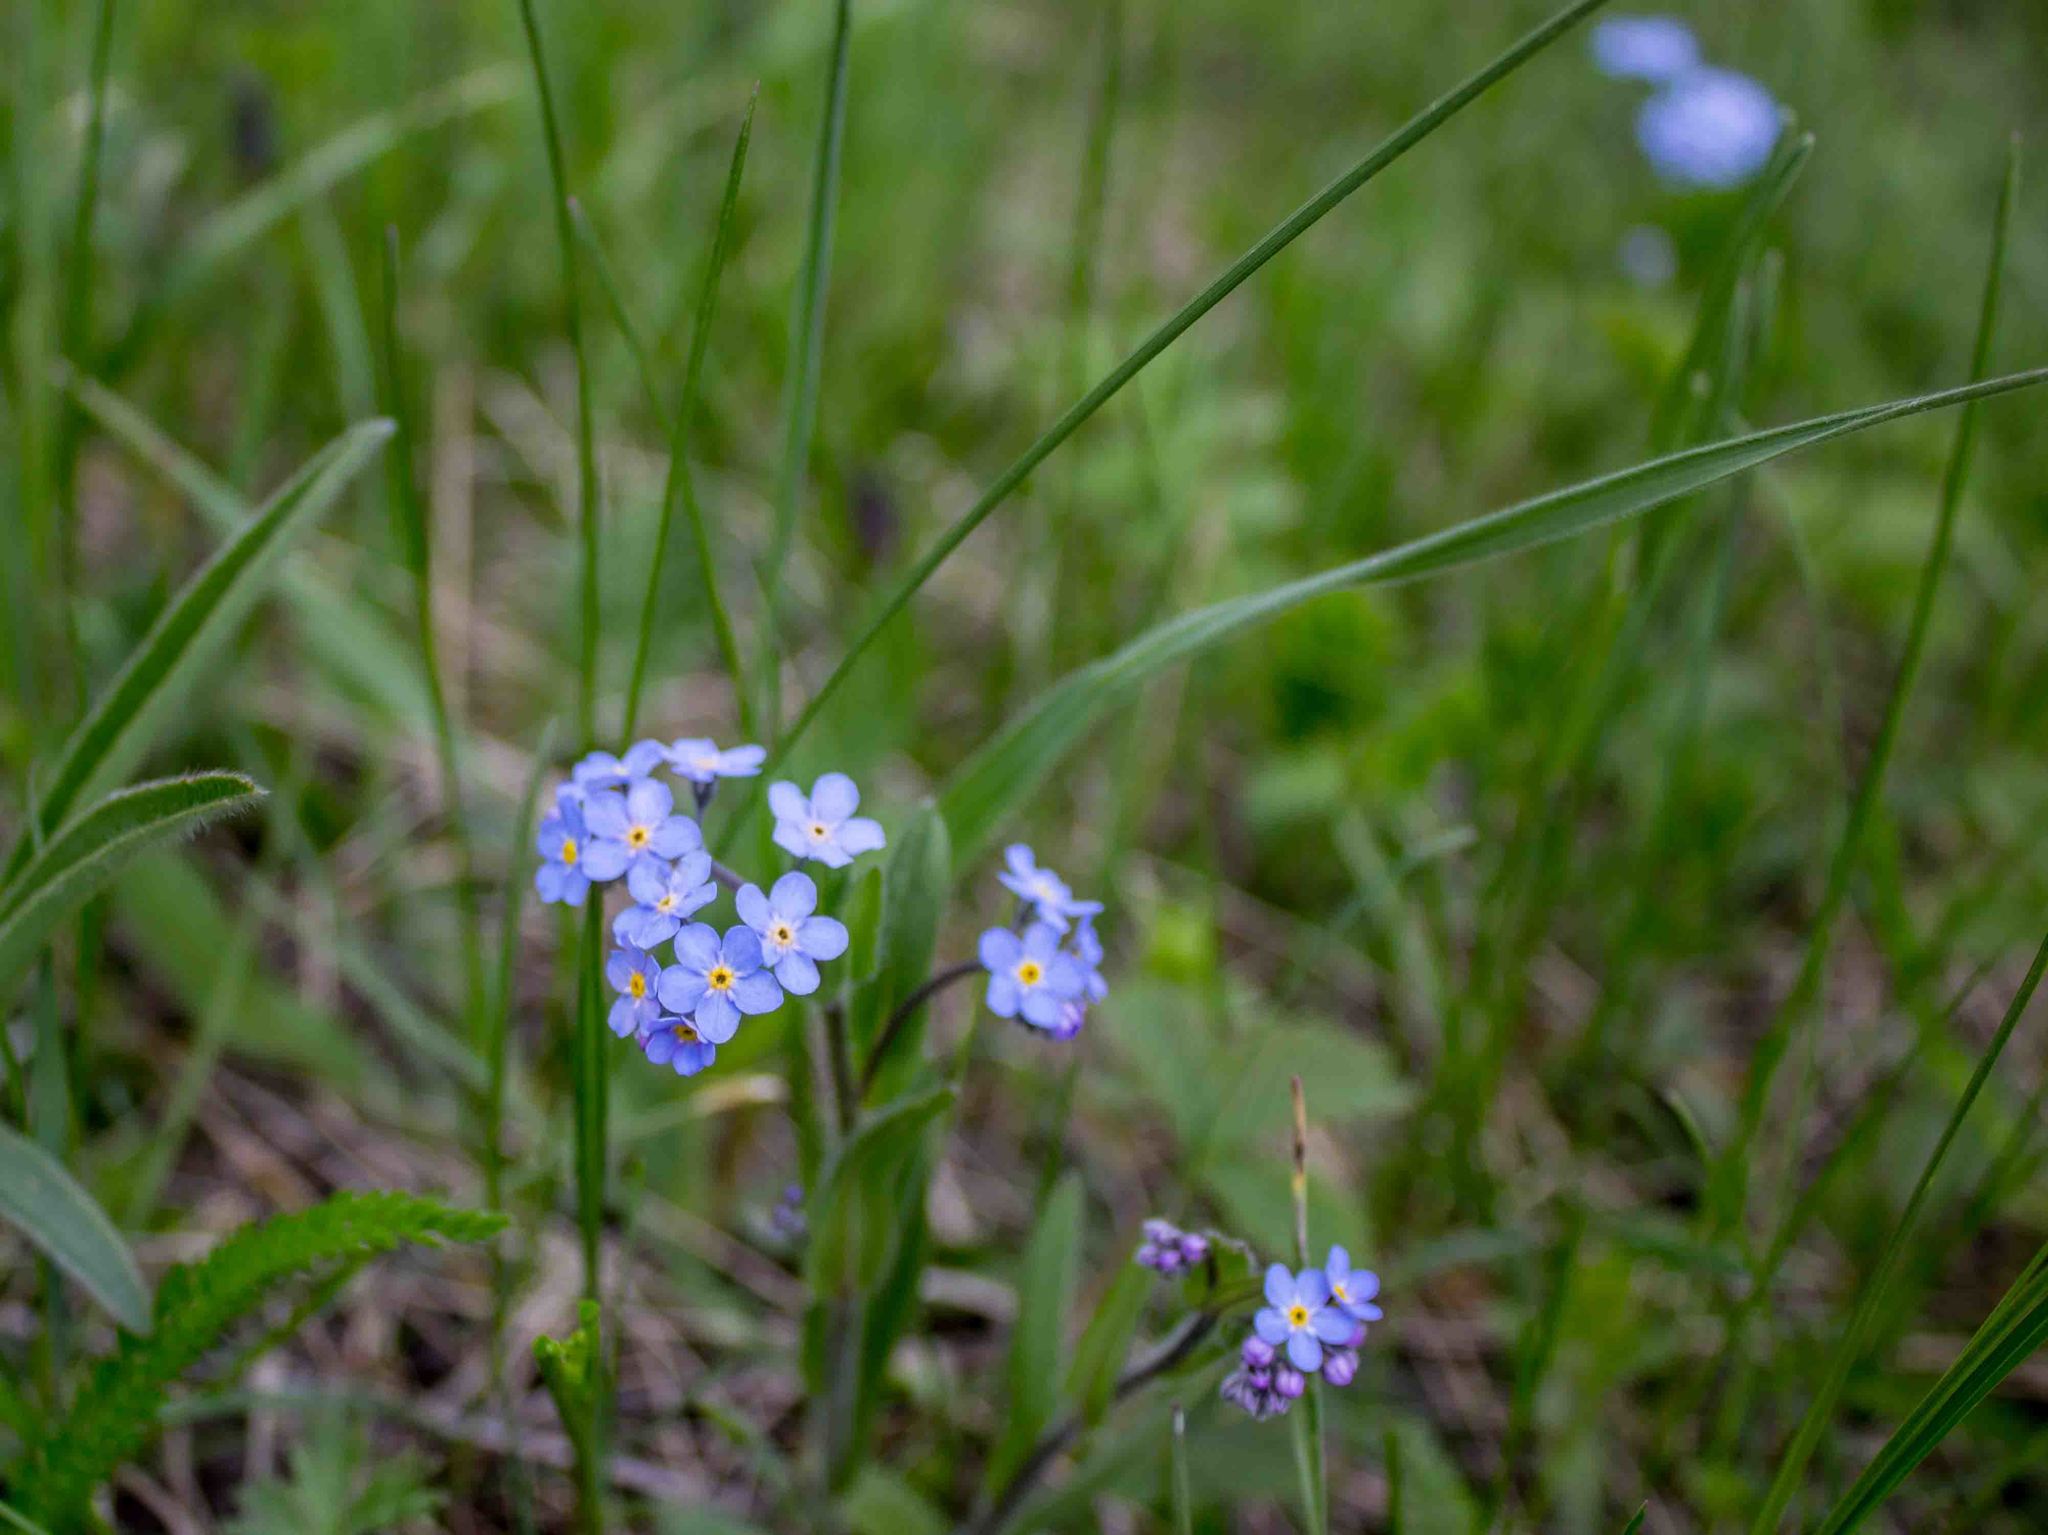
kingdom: Plantae
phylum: Tracheophyta
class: Magnoliopsida
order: Boraginales
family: Boraginaceae
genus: Myosotis
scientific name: Myosotis sylvatica
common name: Wood forget-me-not
